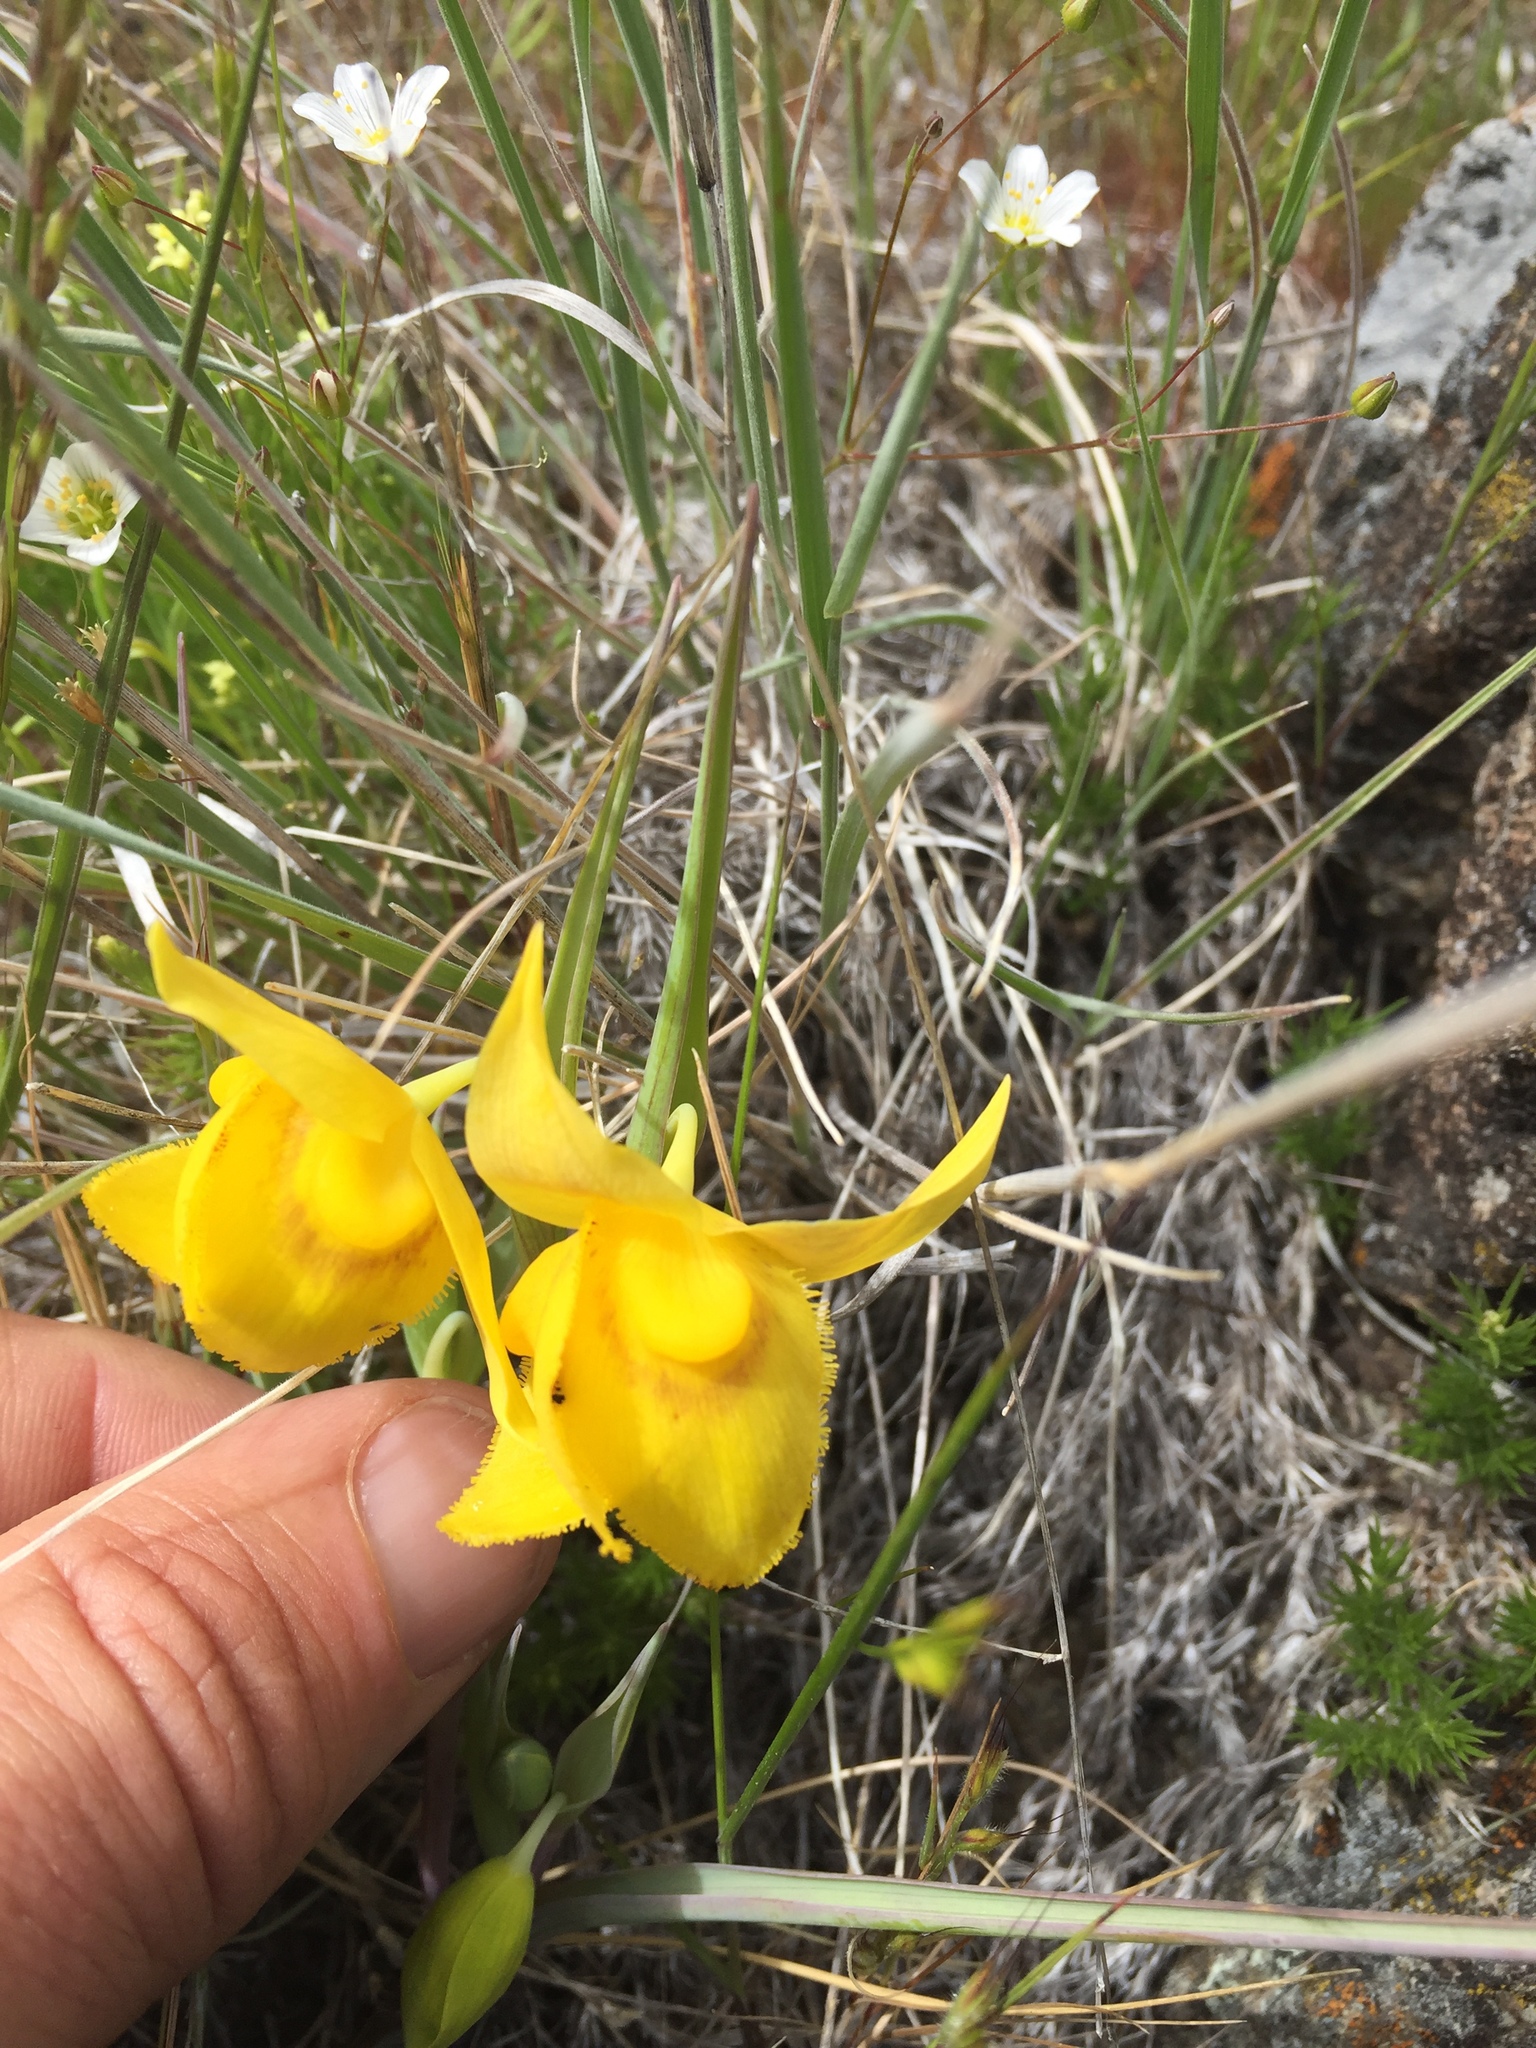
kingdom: Plantae
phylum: Tracheophyta
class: Liliopsida
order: Liliales
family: Liliaceae
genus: Calochortus
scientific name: Calochortus amabilis
